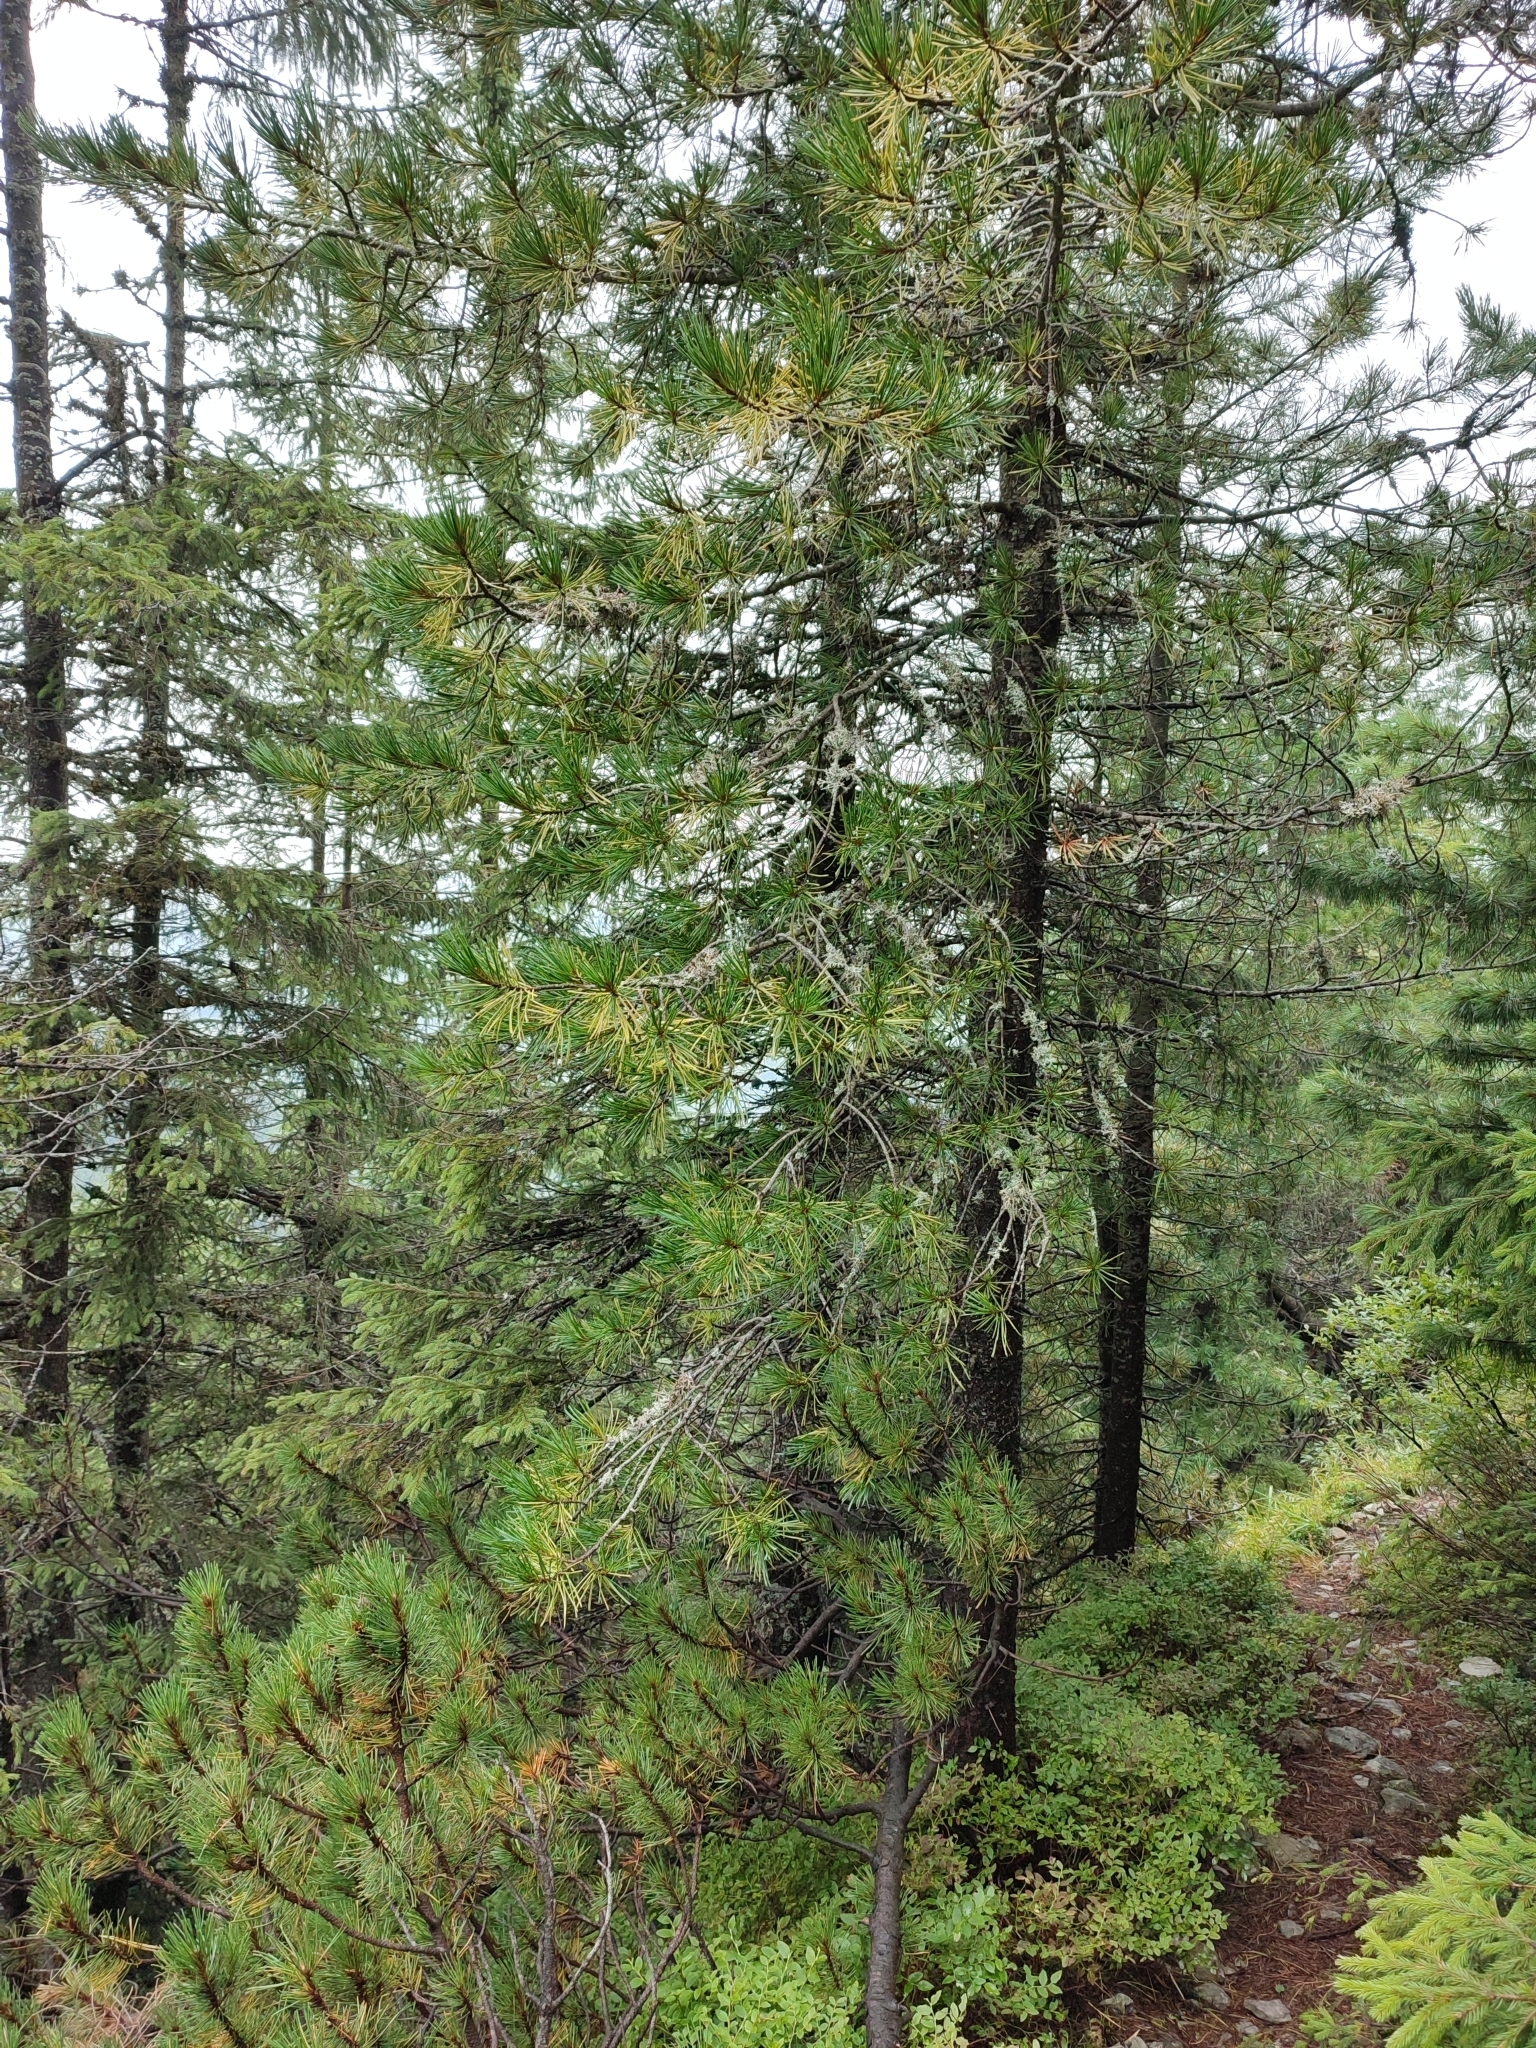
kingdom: Plantae
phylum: Tracheophyta
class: Pinopsida
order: Pinales
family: Pinaceae
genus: Pinus
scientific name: Pinus cembra
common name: Arolla pine
